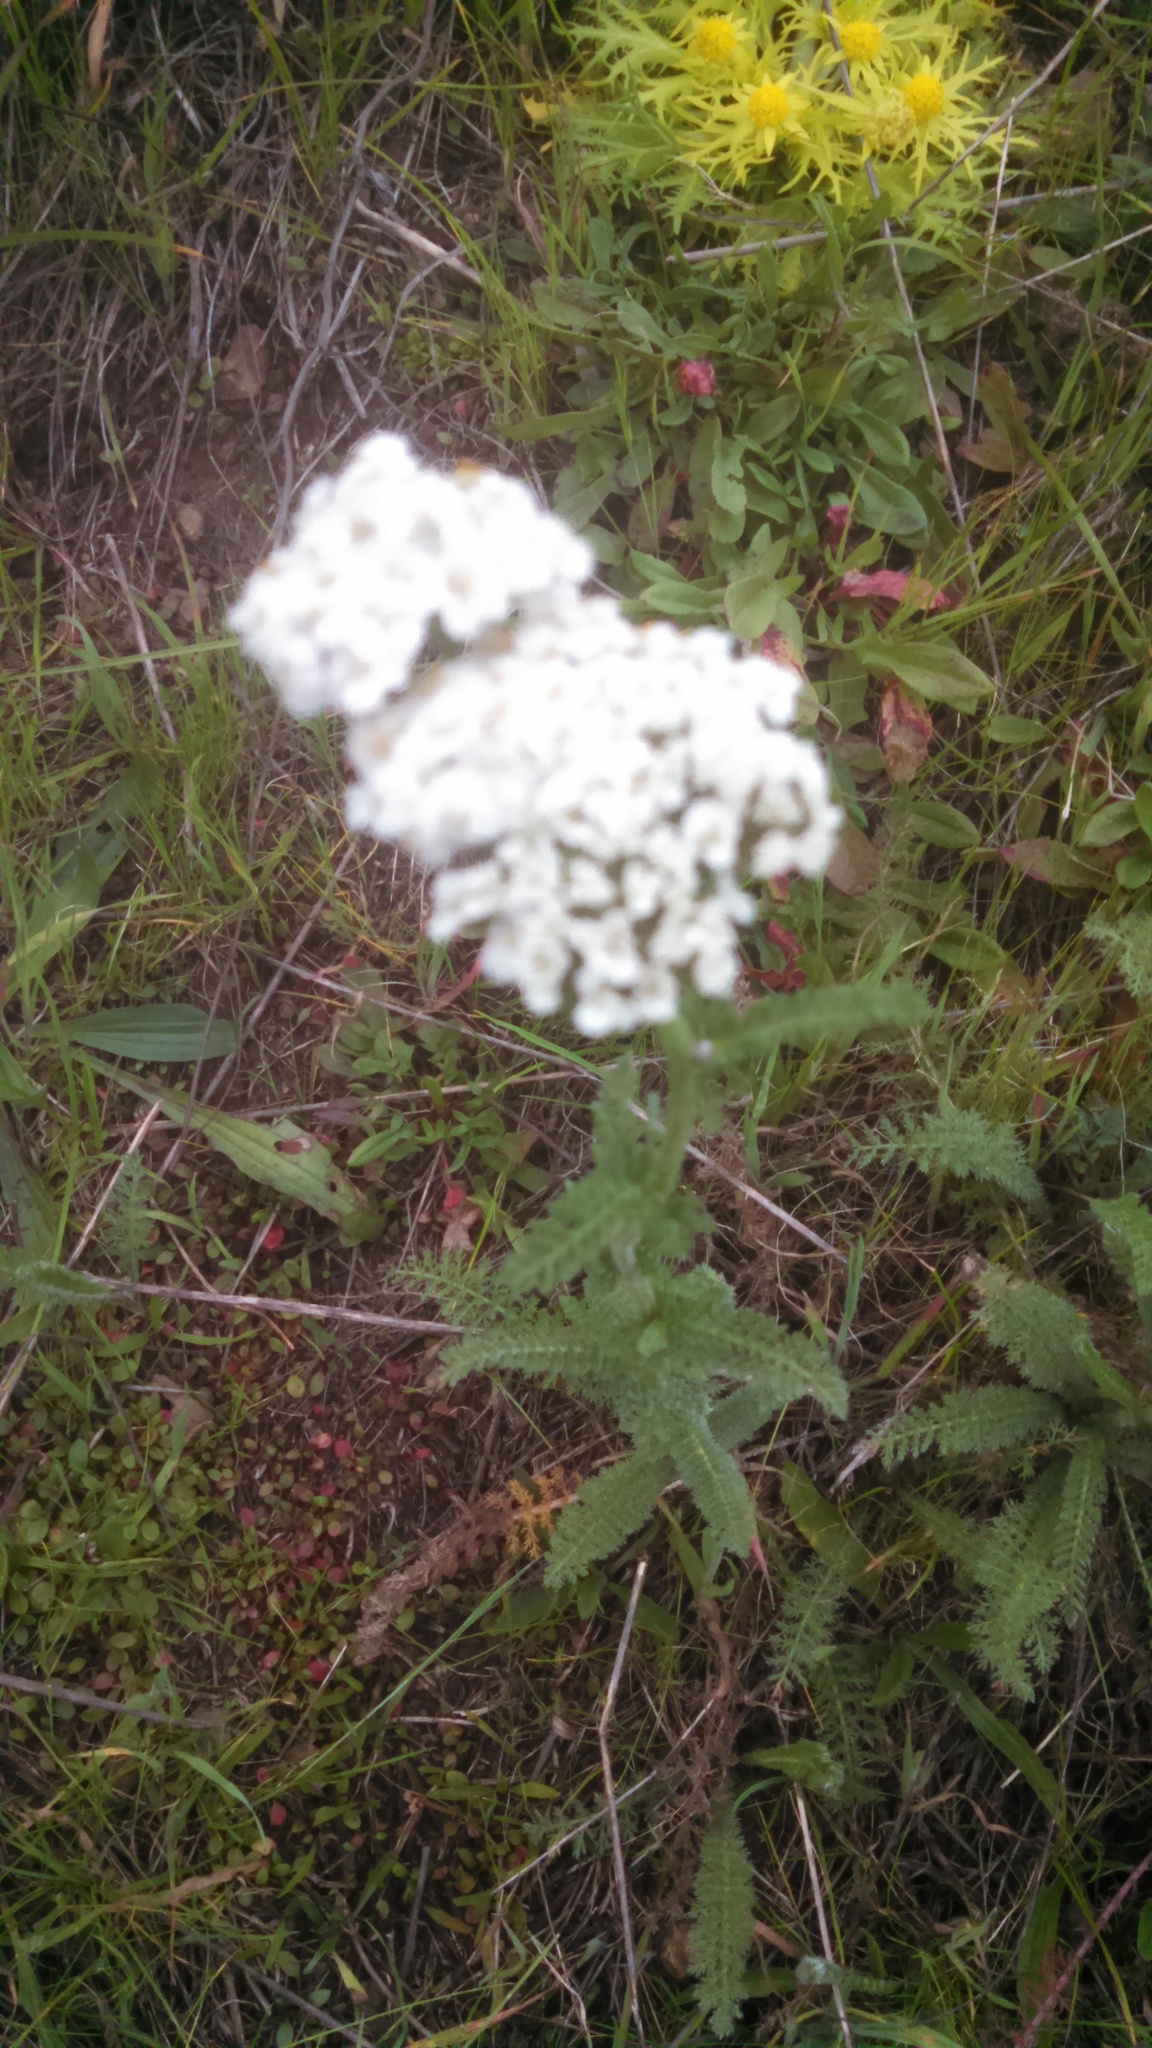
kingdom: Plantae
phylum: Tracheophyta
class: Magnoliopsida
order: Asterales
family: Asteraceae
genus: Achillea
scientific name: Achillea millefolium
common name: Yarrow
